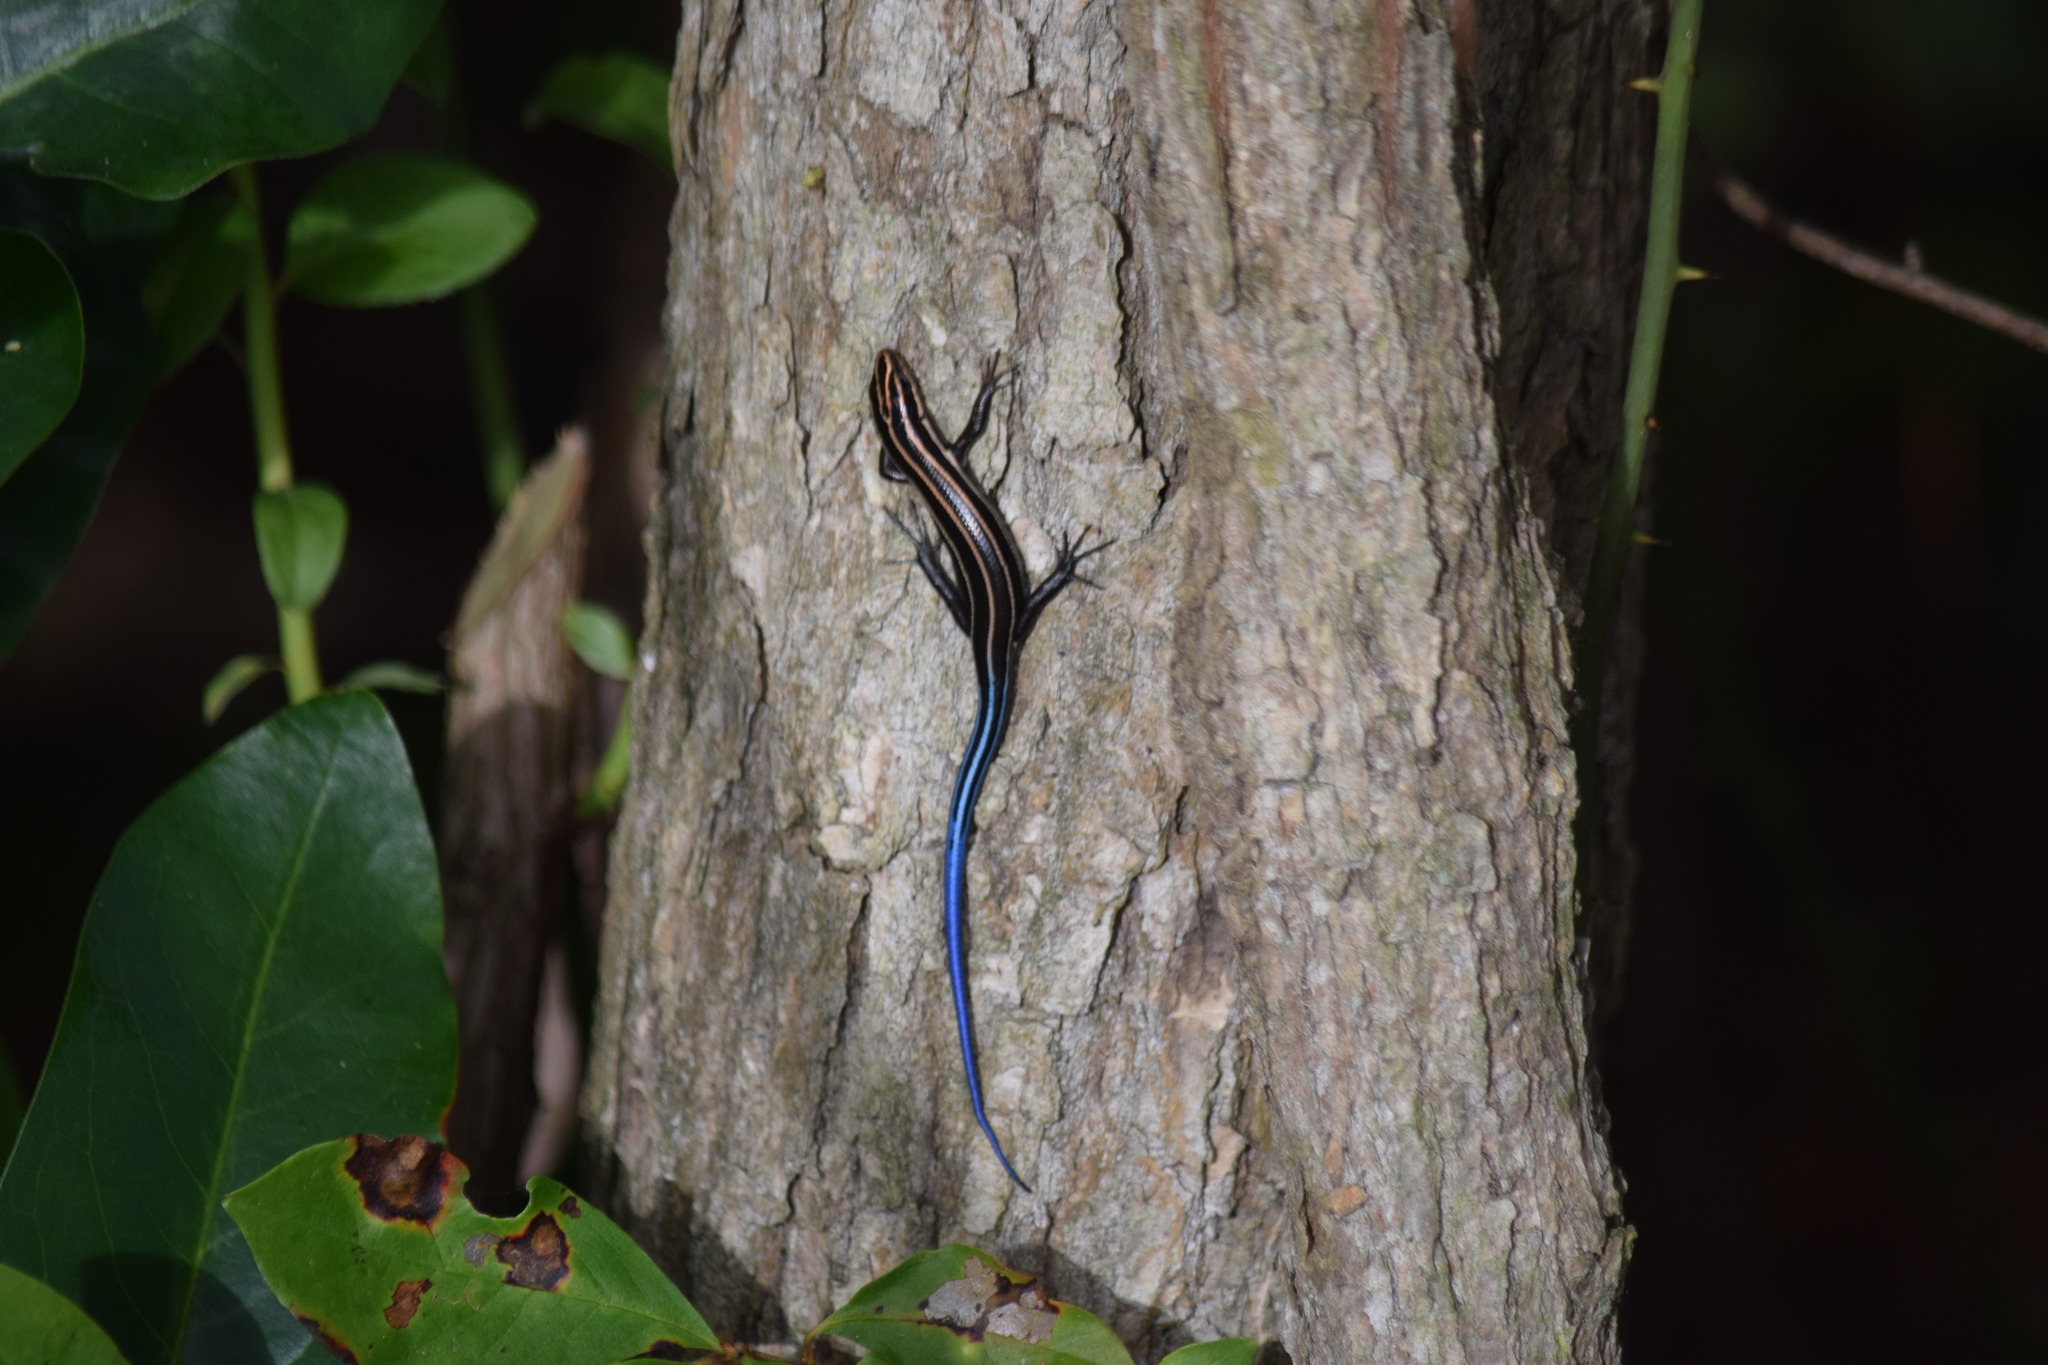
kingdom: Animalia
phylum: Chordata
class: Squamata
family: Scincidae
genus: Plestiodon
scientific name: Plestiodon fasciatus
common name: Five-lined skink
